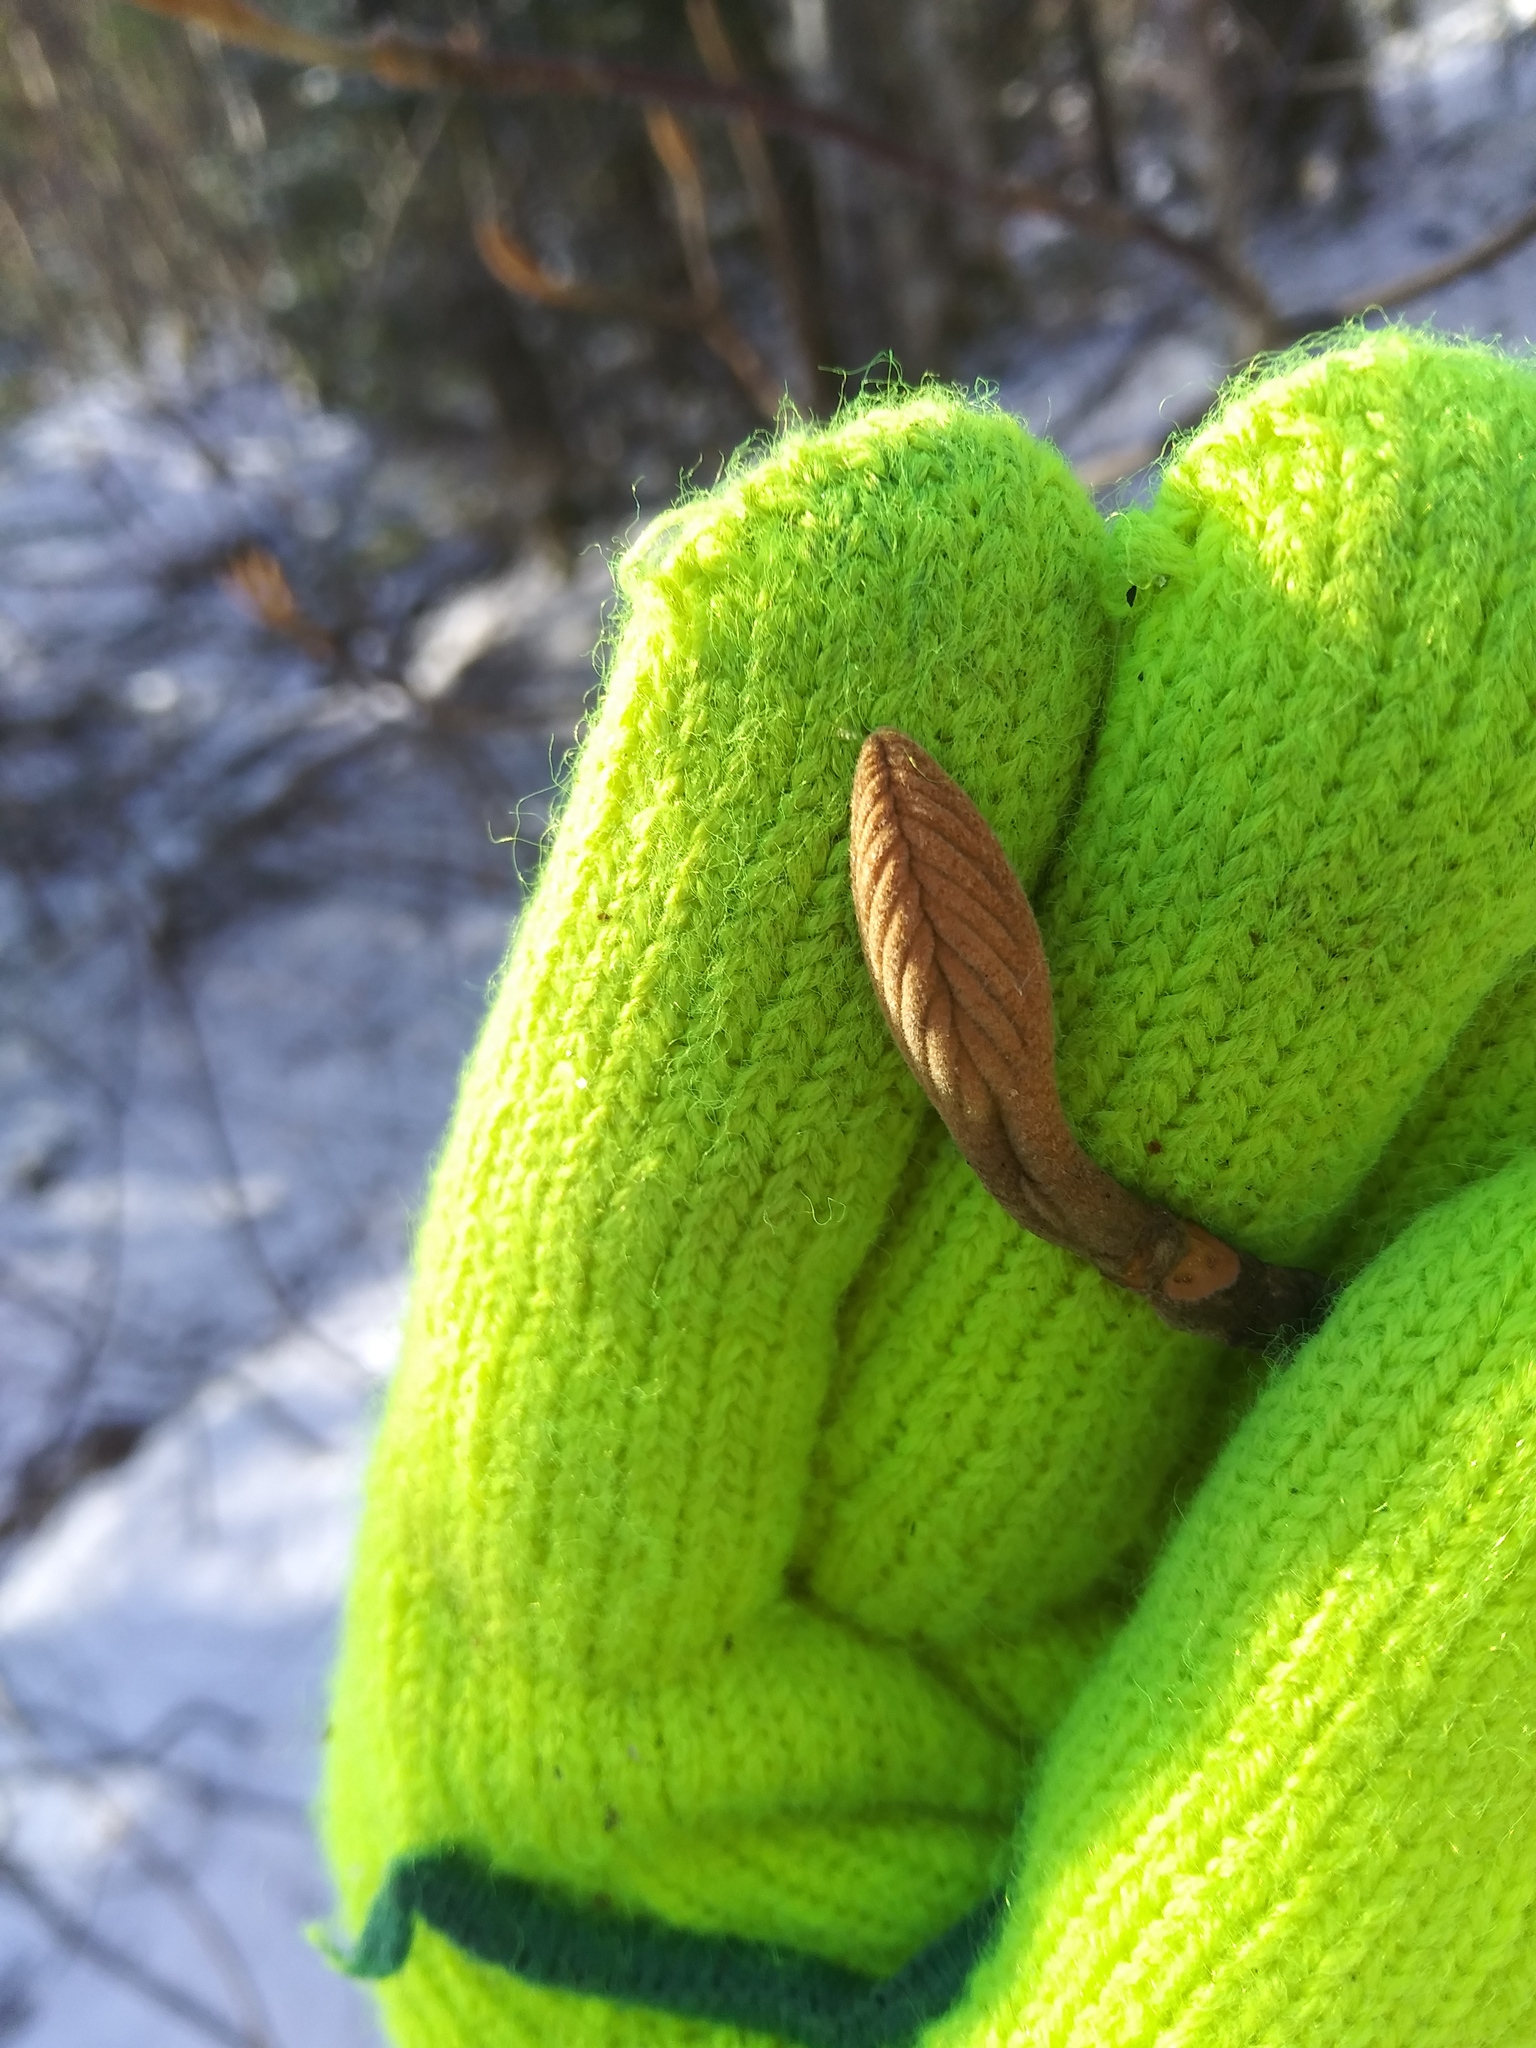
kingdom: Plantae
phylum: Tracheophyta
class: Magnoliopsida
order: Dipsacales
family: Viburnaceae
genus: Viburnum
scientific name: Viburnum lantanoides
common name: Hobblebush
